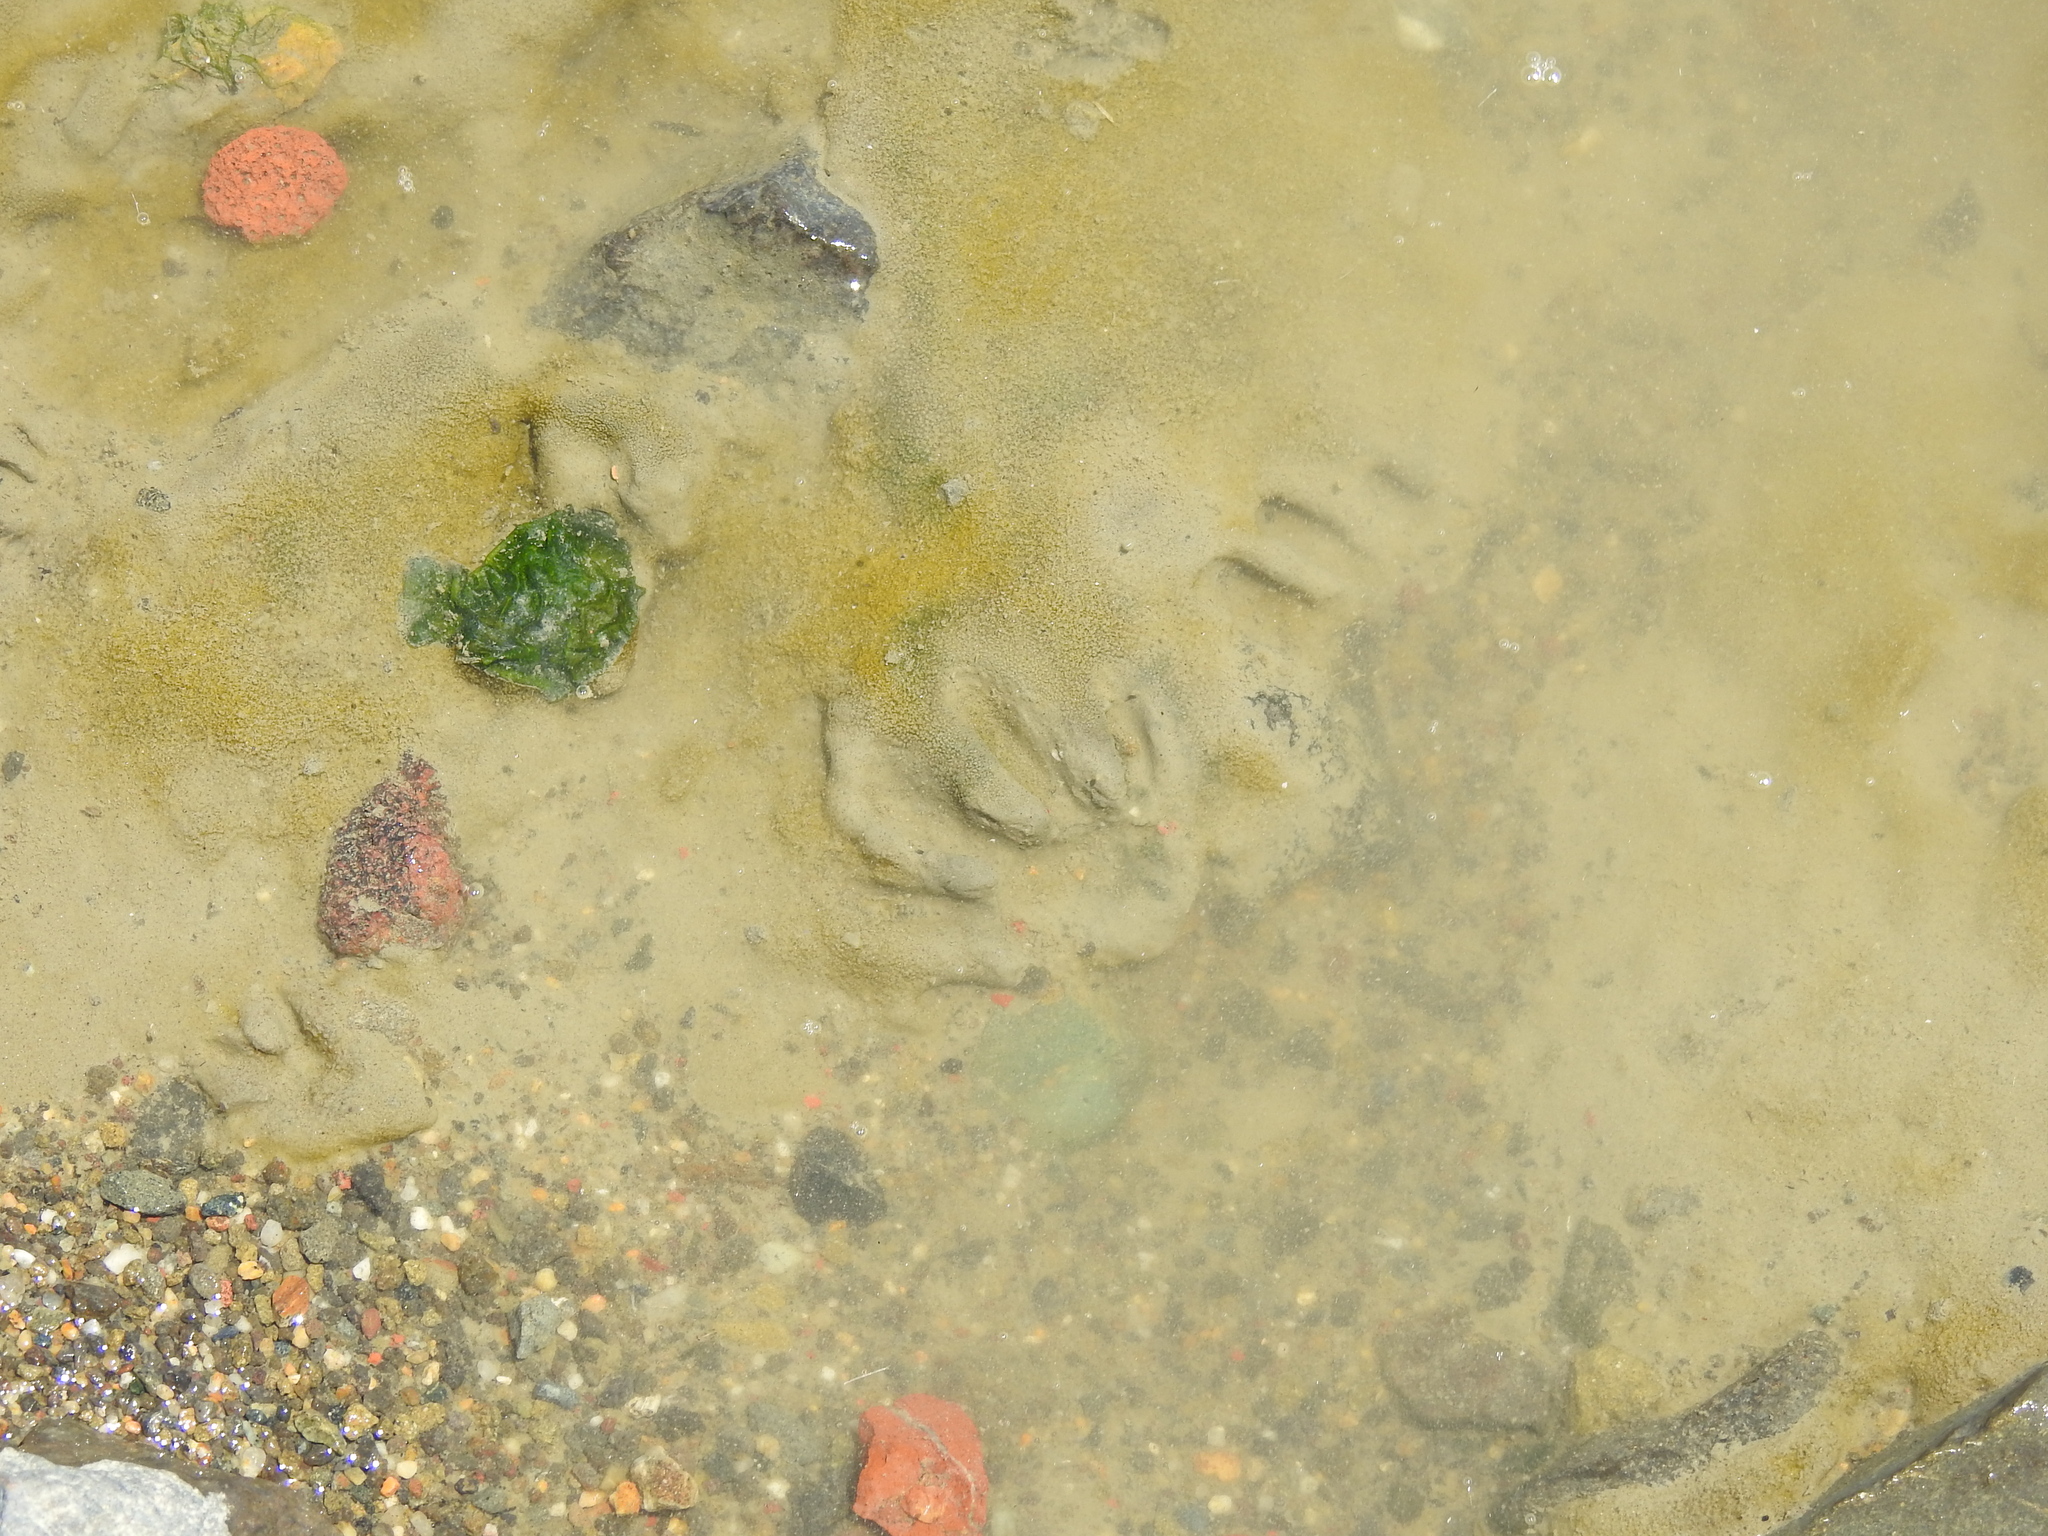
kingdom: Animalia
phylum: Chordata
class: Mammalia
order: Carnivora
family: Procyonidae
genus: Procyon
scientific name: Procyon lotor
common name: Raccoon
